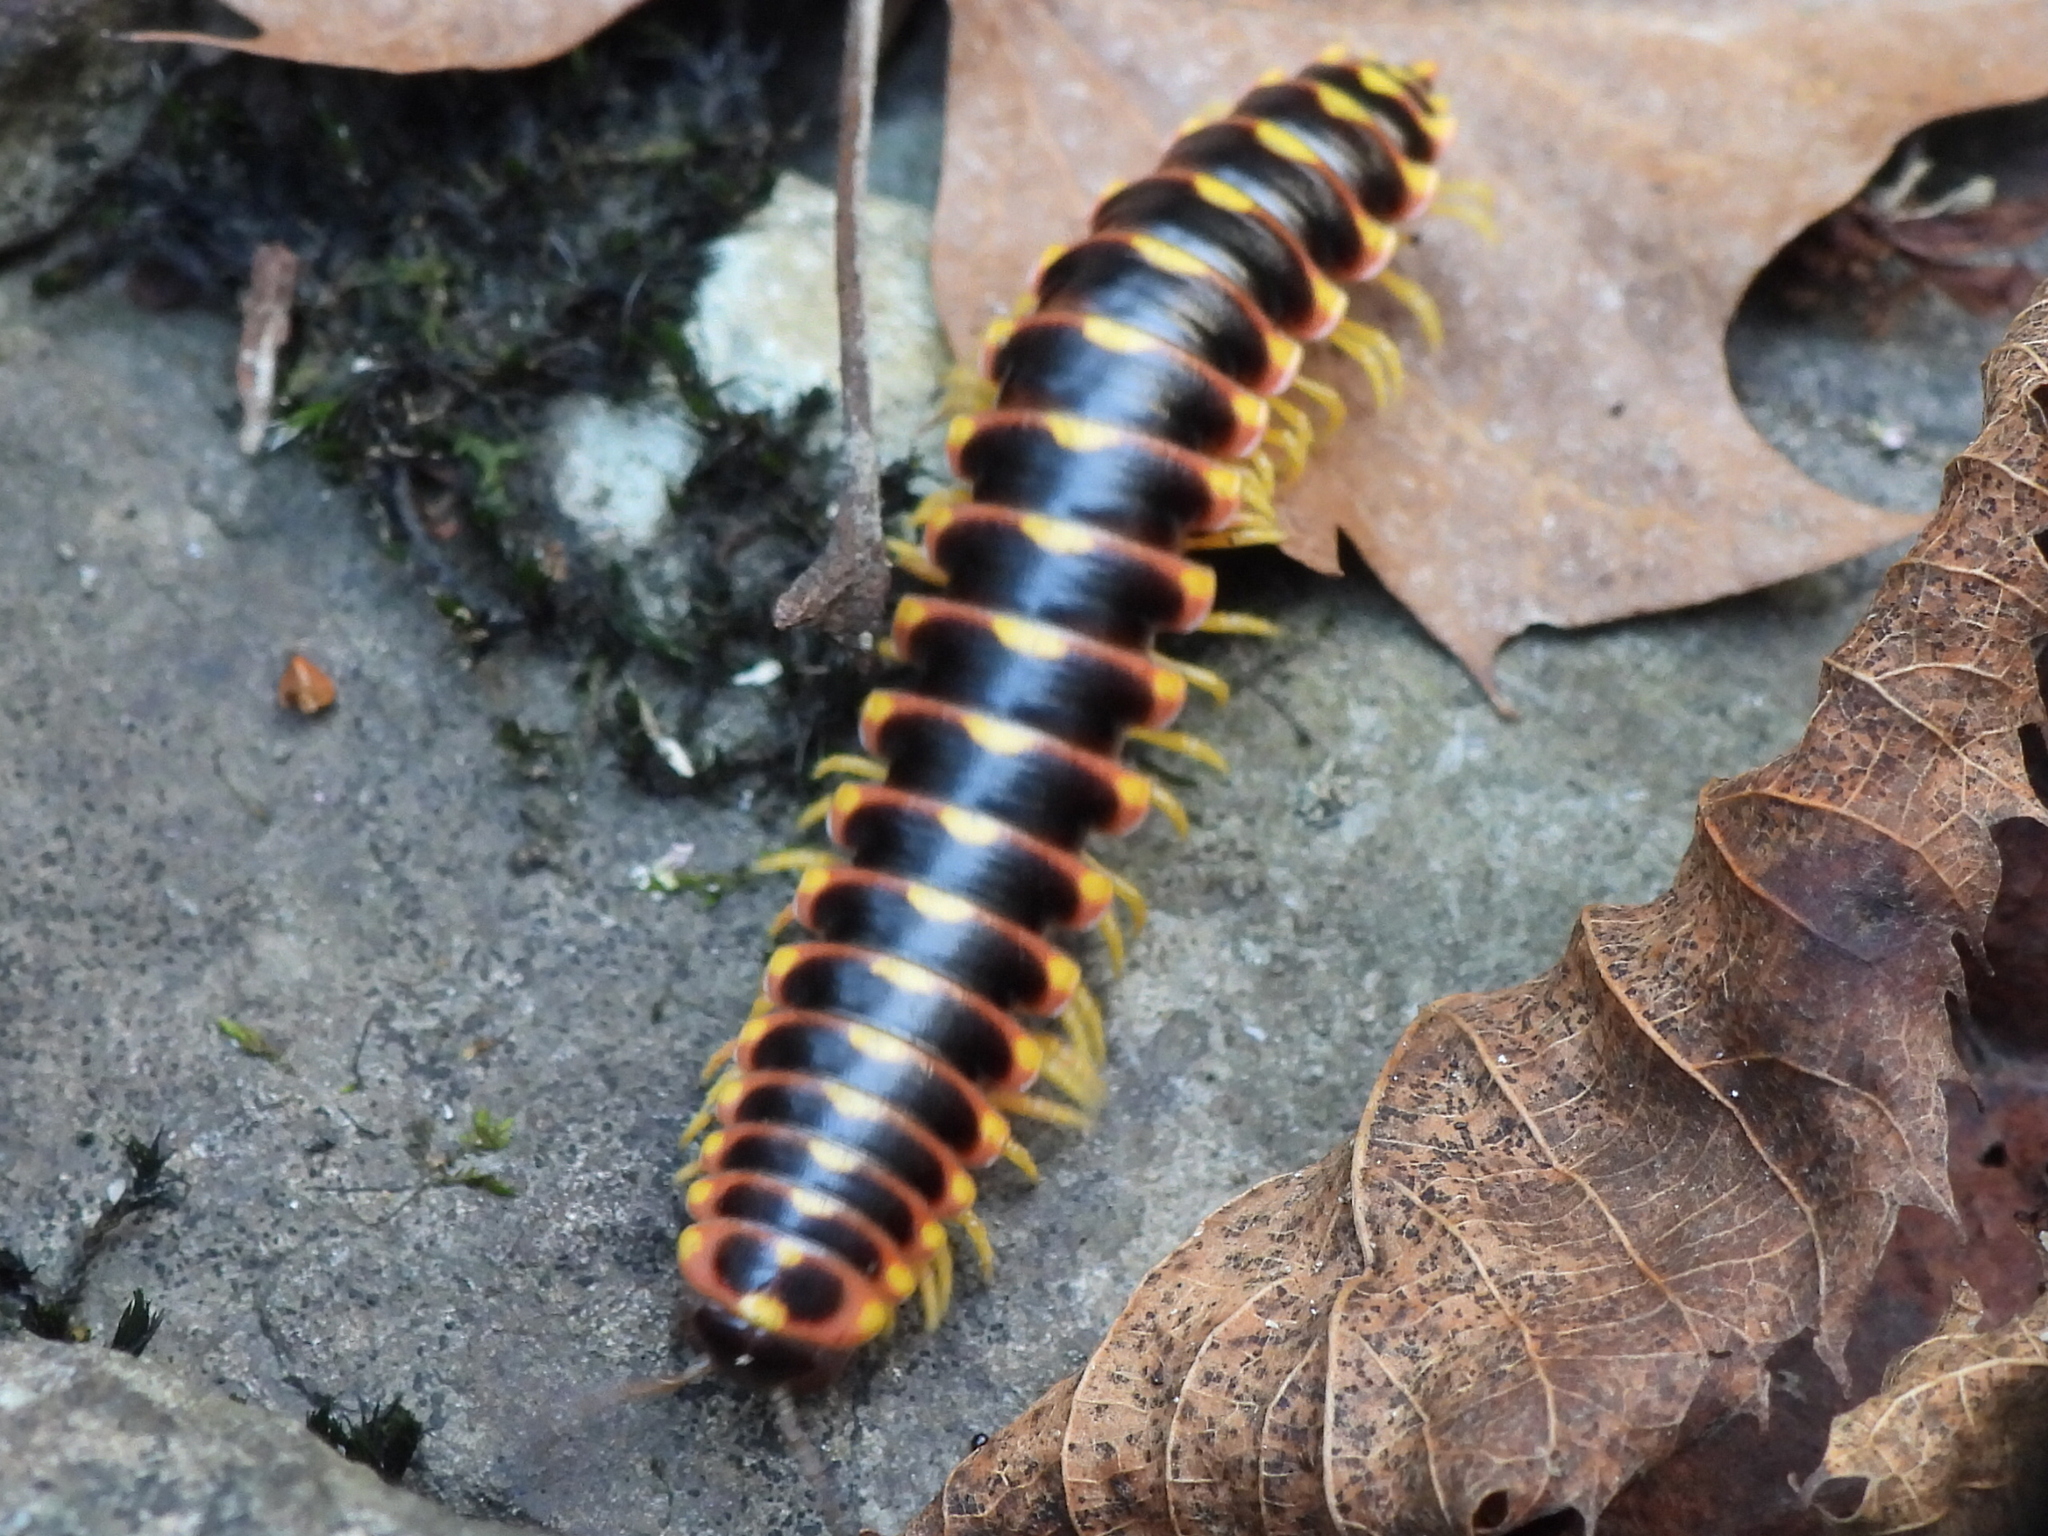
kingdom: Animalia
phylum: Arthropoda
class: Diplopoda
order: Polydesmida
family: Xystodesmidae
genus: Apheloria
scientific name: Apheloria virginiensis
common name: Black-and-gold flat millipede
